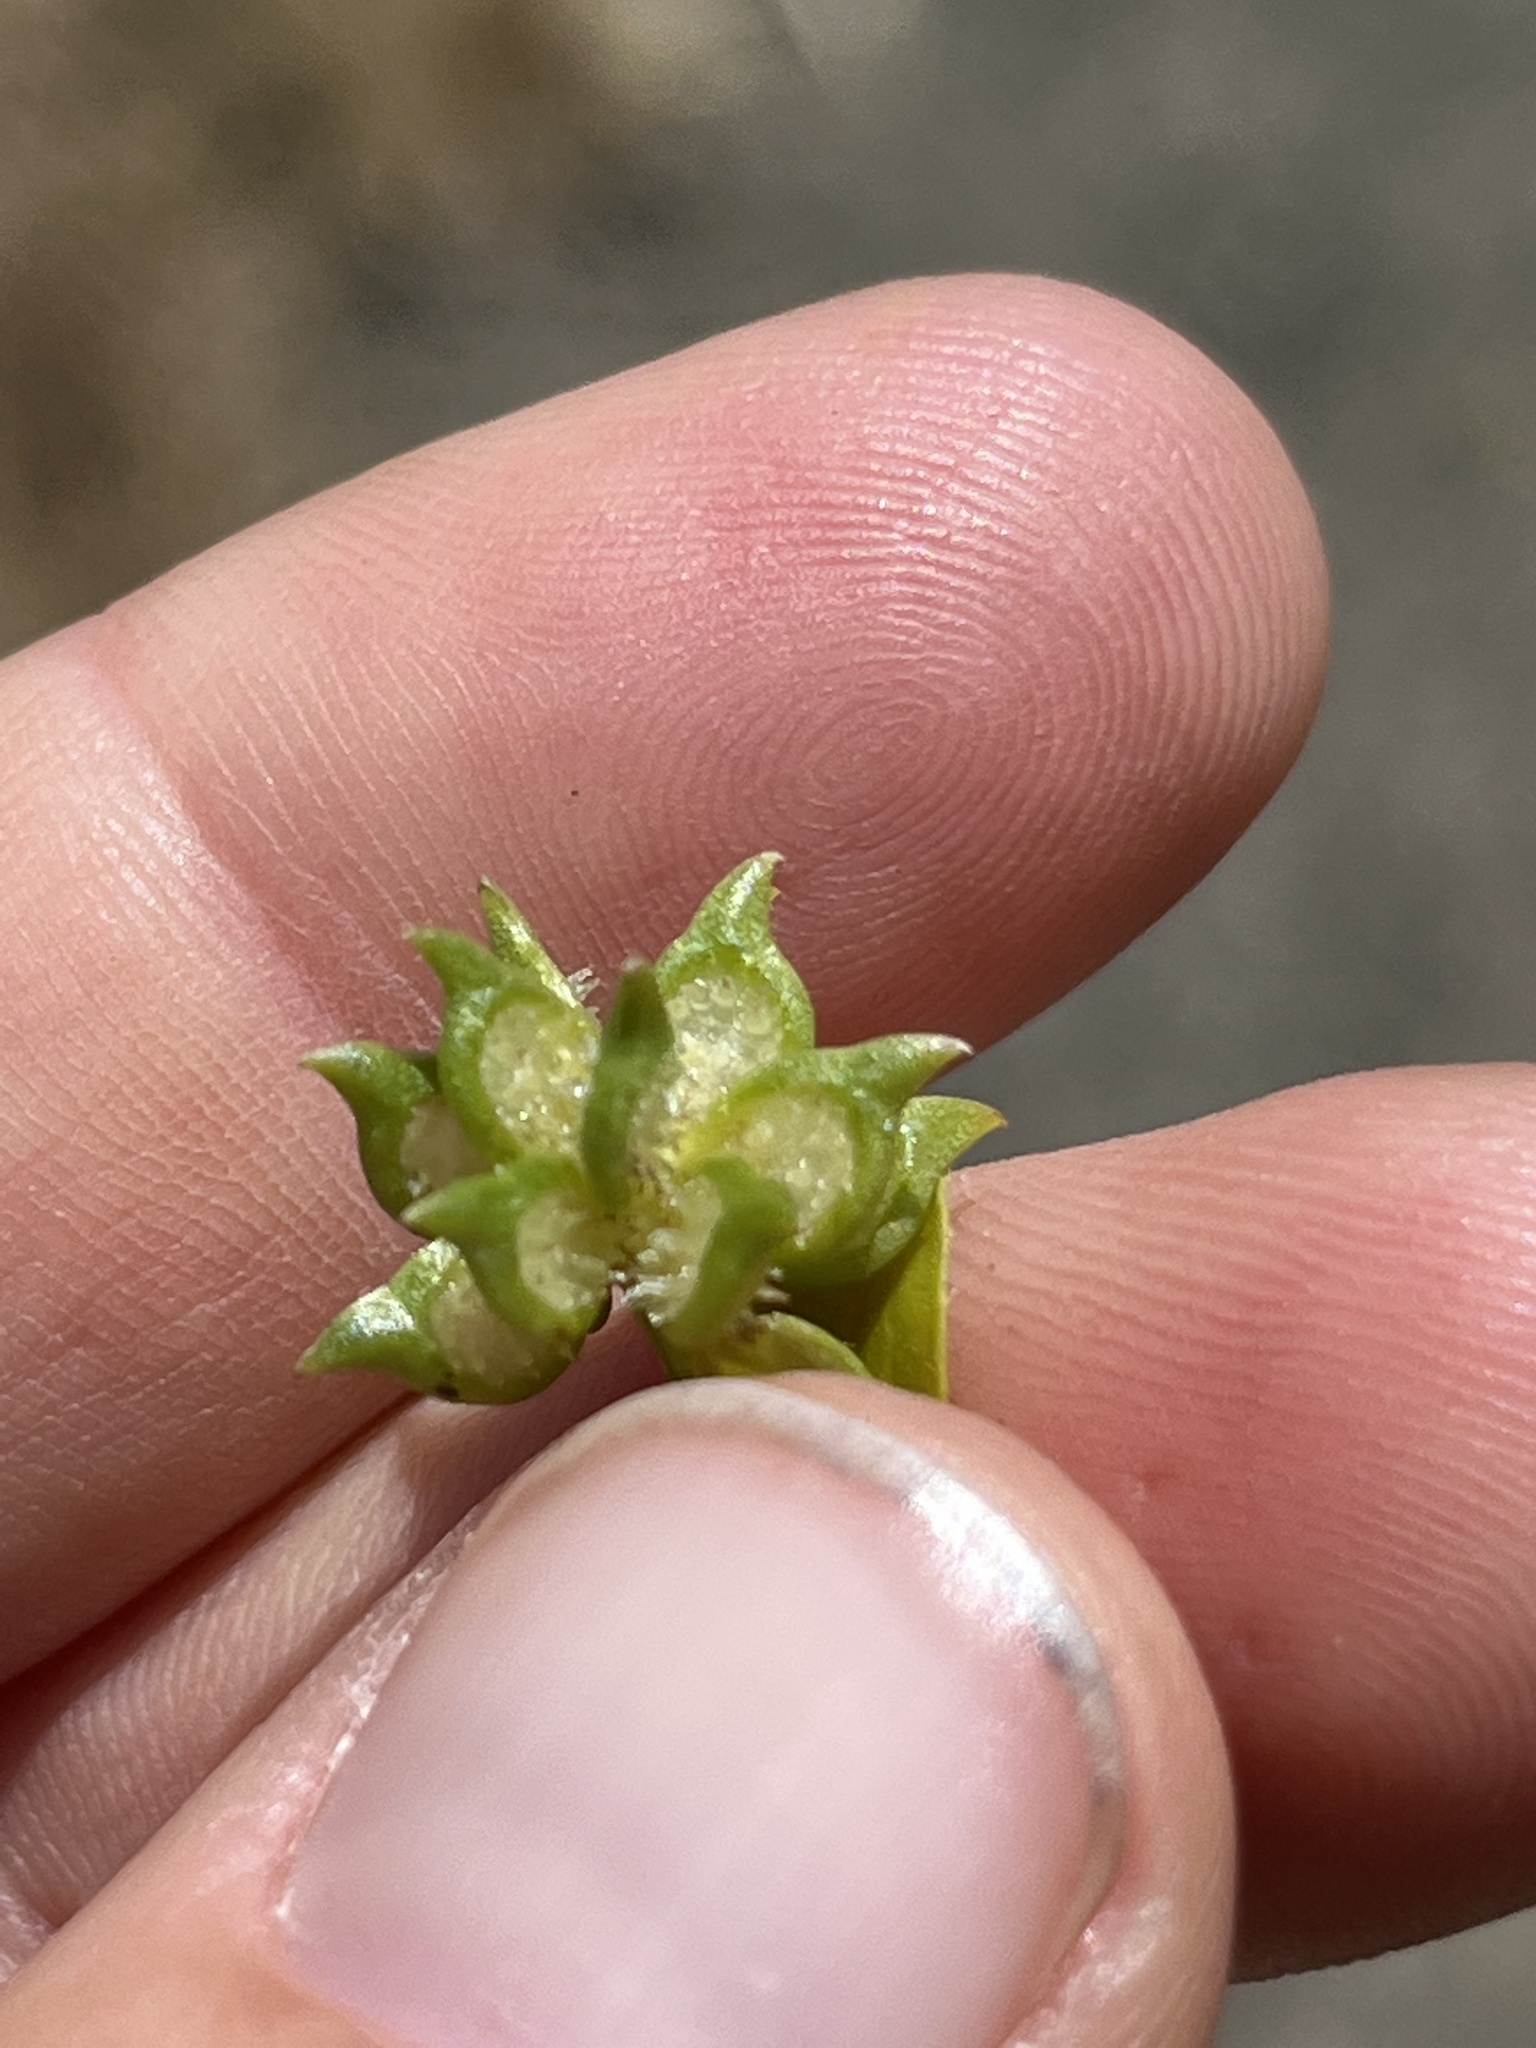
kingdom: Plantae
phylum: Tracheophyta
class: Magnoliopsida
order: Ranunculales
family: Ranunculaceae
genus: Ranunculus
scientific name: Ranunculus muricatus
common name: Rough-fruited buttercup
